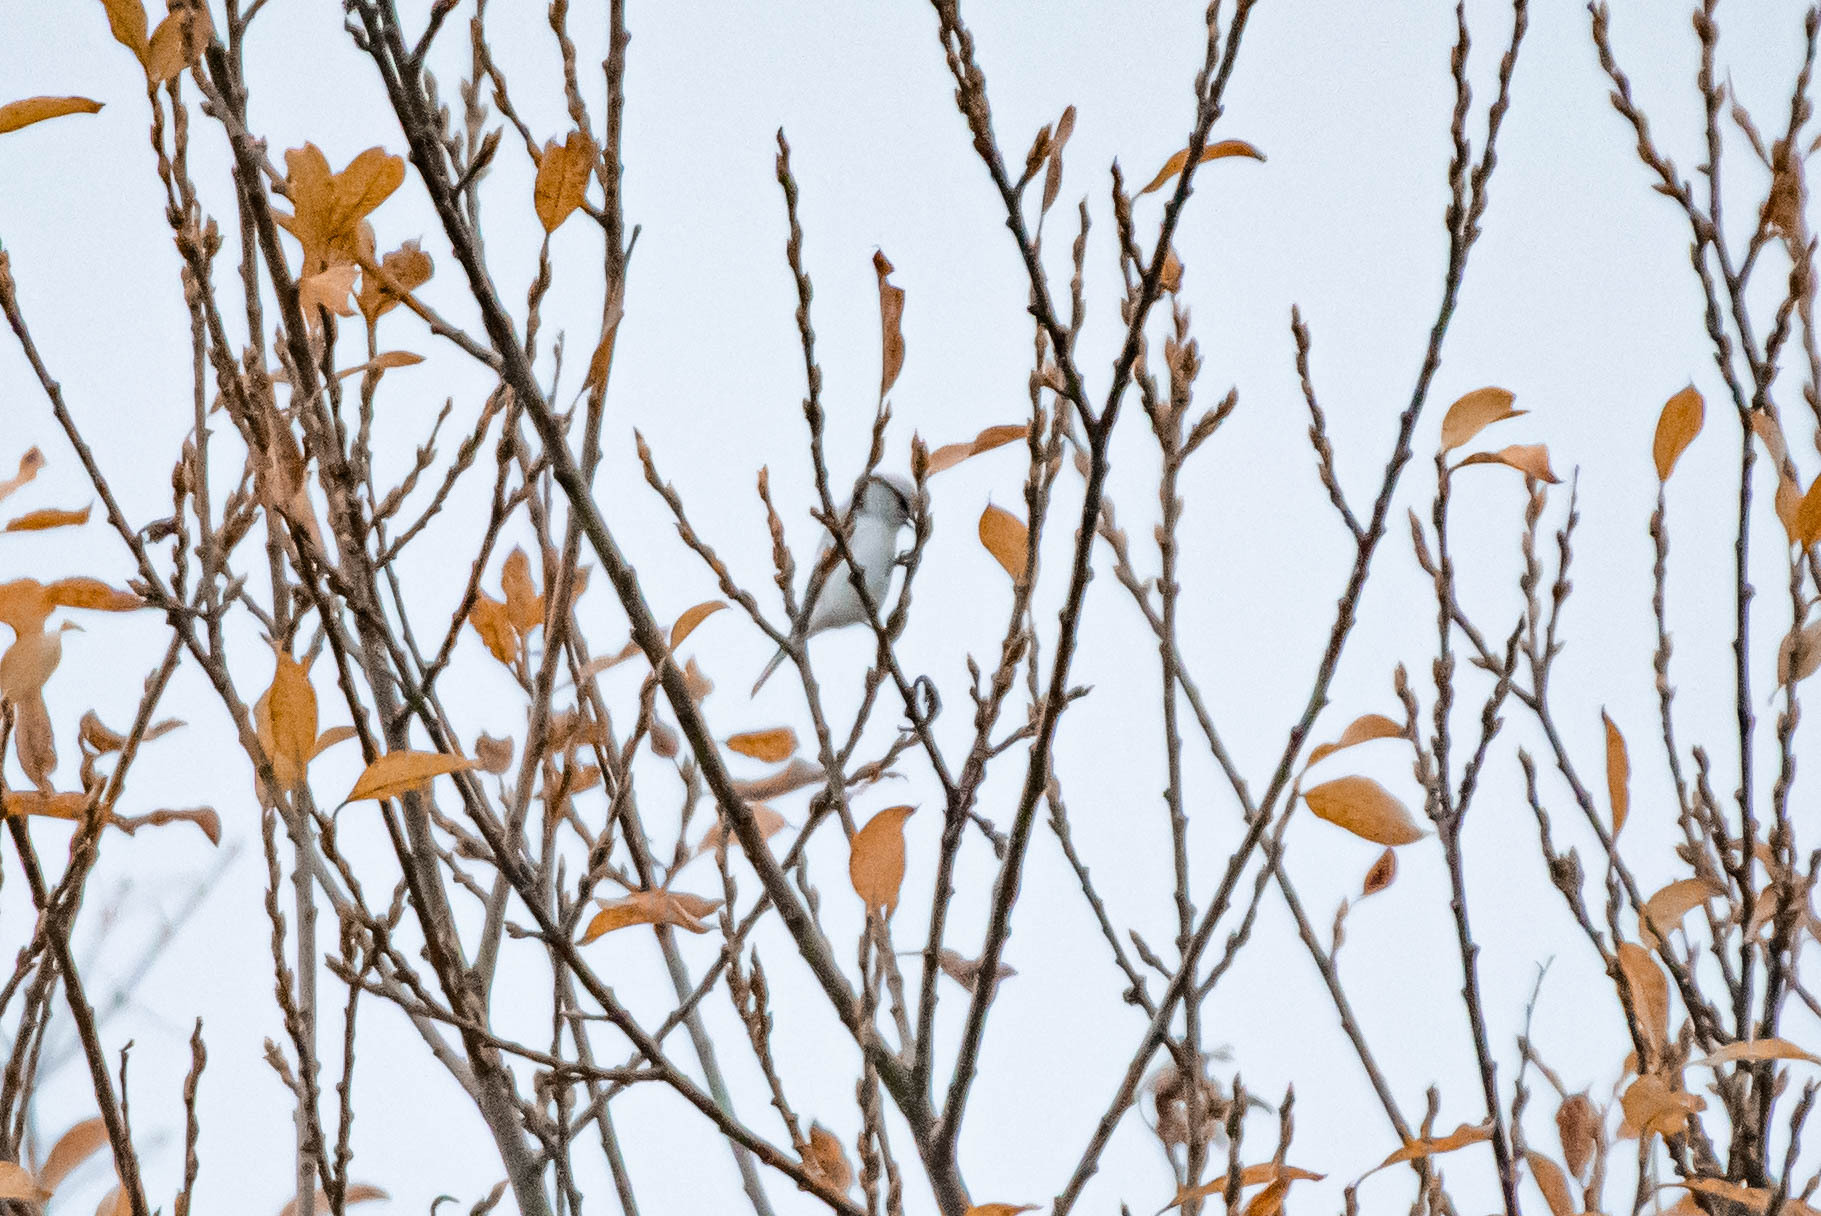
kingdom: Animalia
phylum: Chordata
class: Aves
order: Passeriformes
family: Paridae
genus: Cyanistes
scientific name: Cyanistes cyanus
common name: Azure tit
